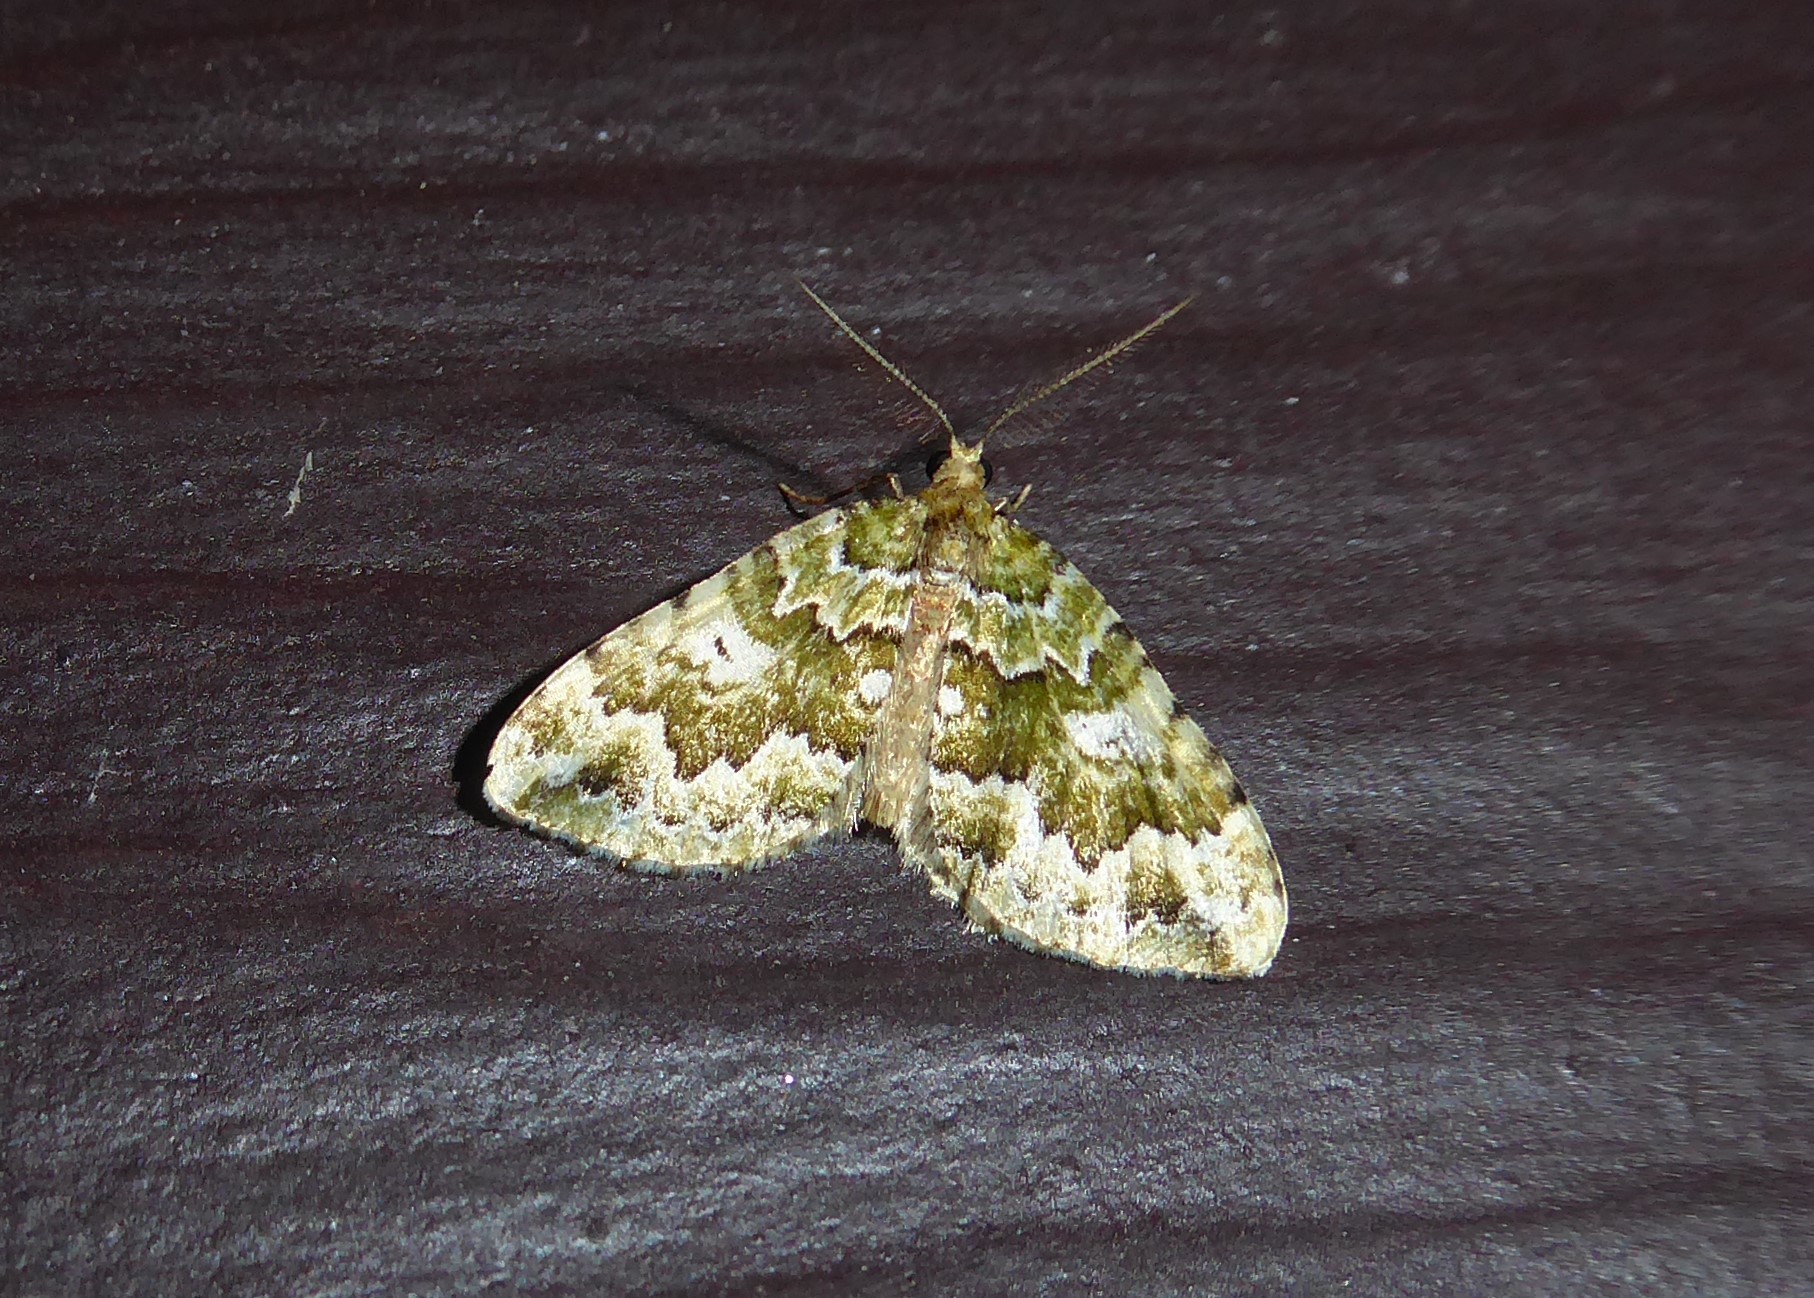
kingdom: Animalia
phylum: Arthropoda
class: Insecta
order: Lepidoptera
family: Geometridae
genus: Asaphodes
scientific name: Asaphodes beata
